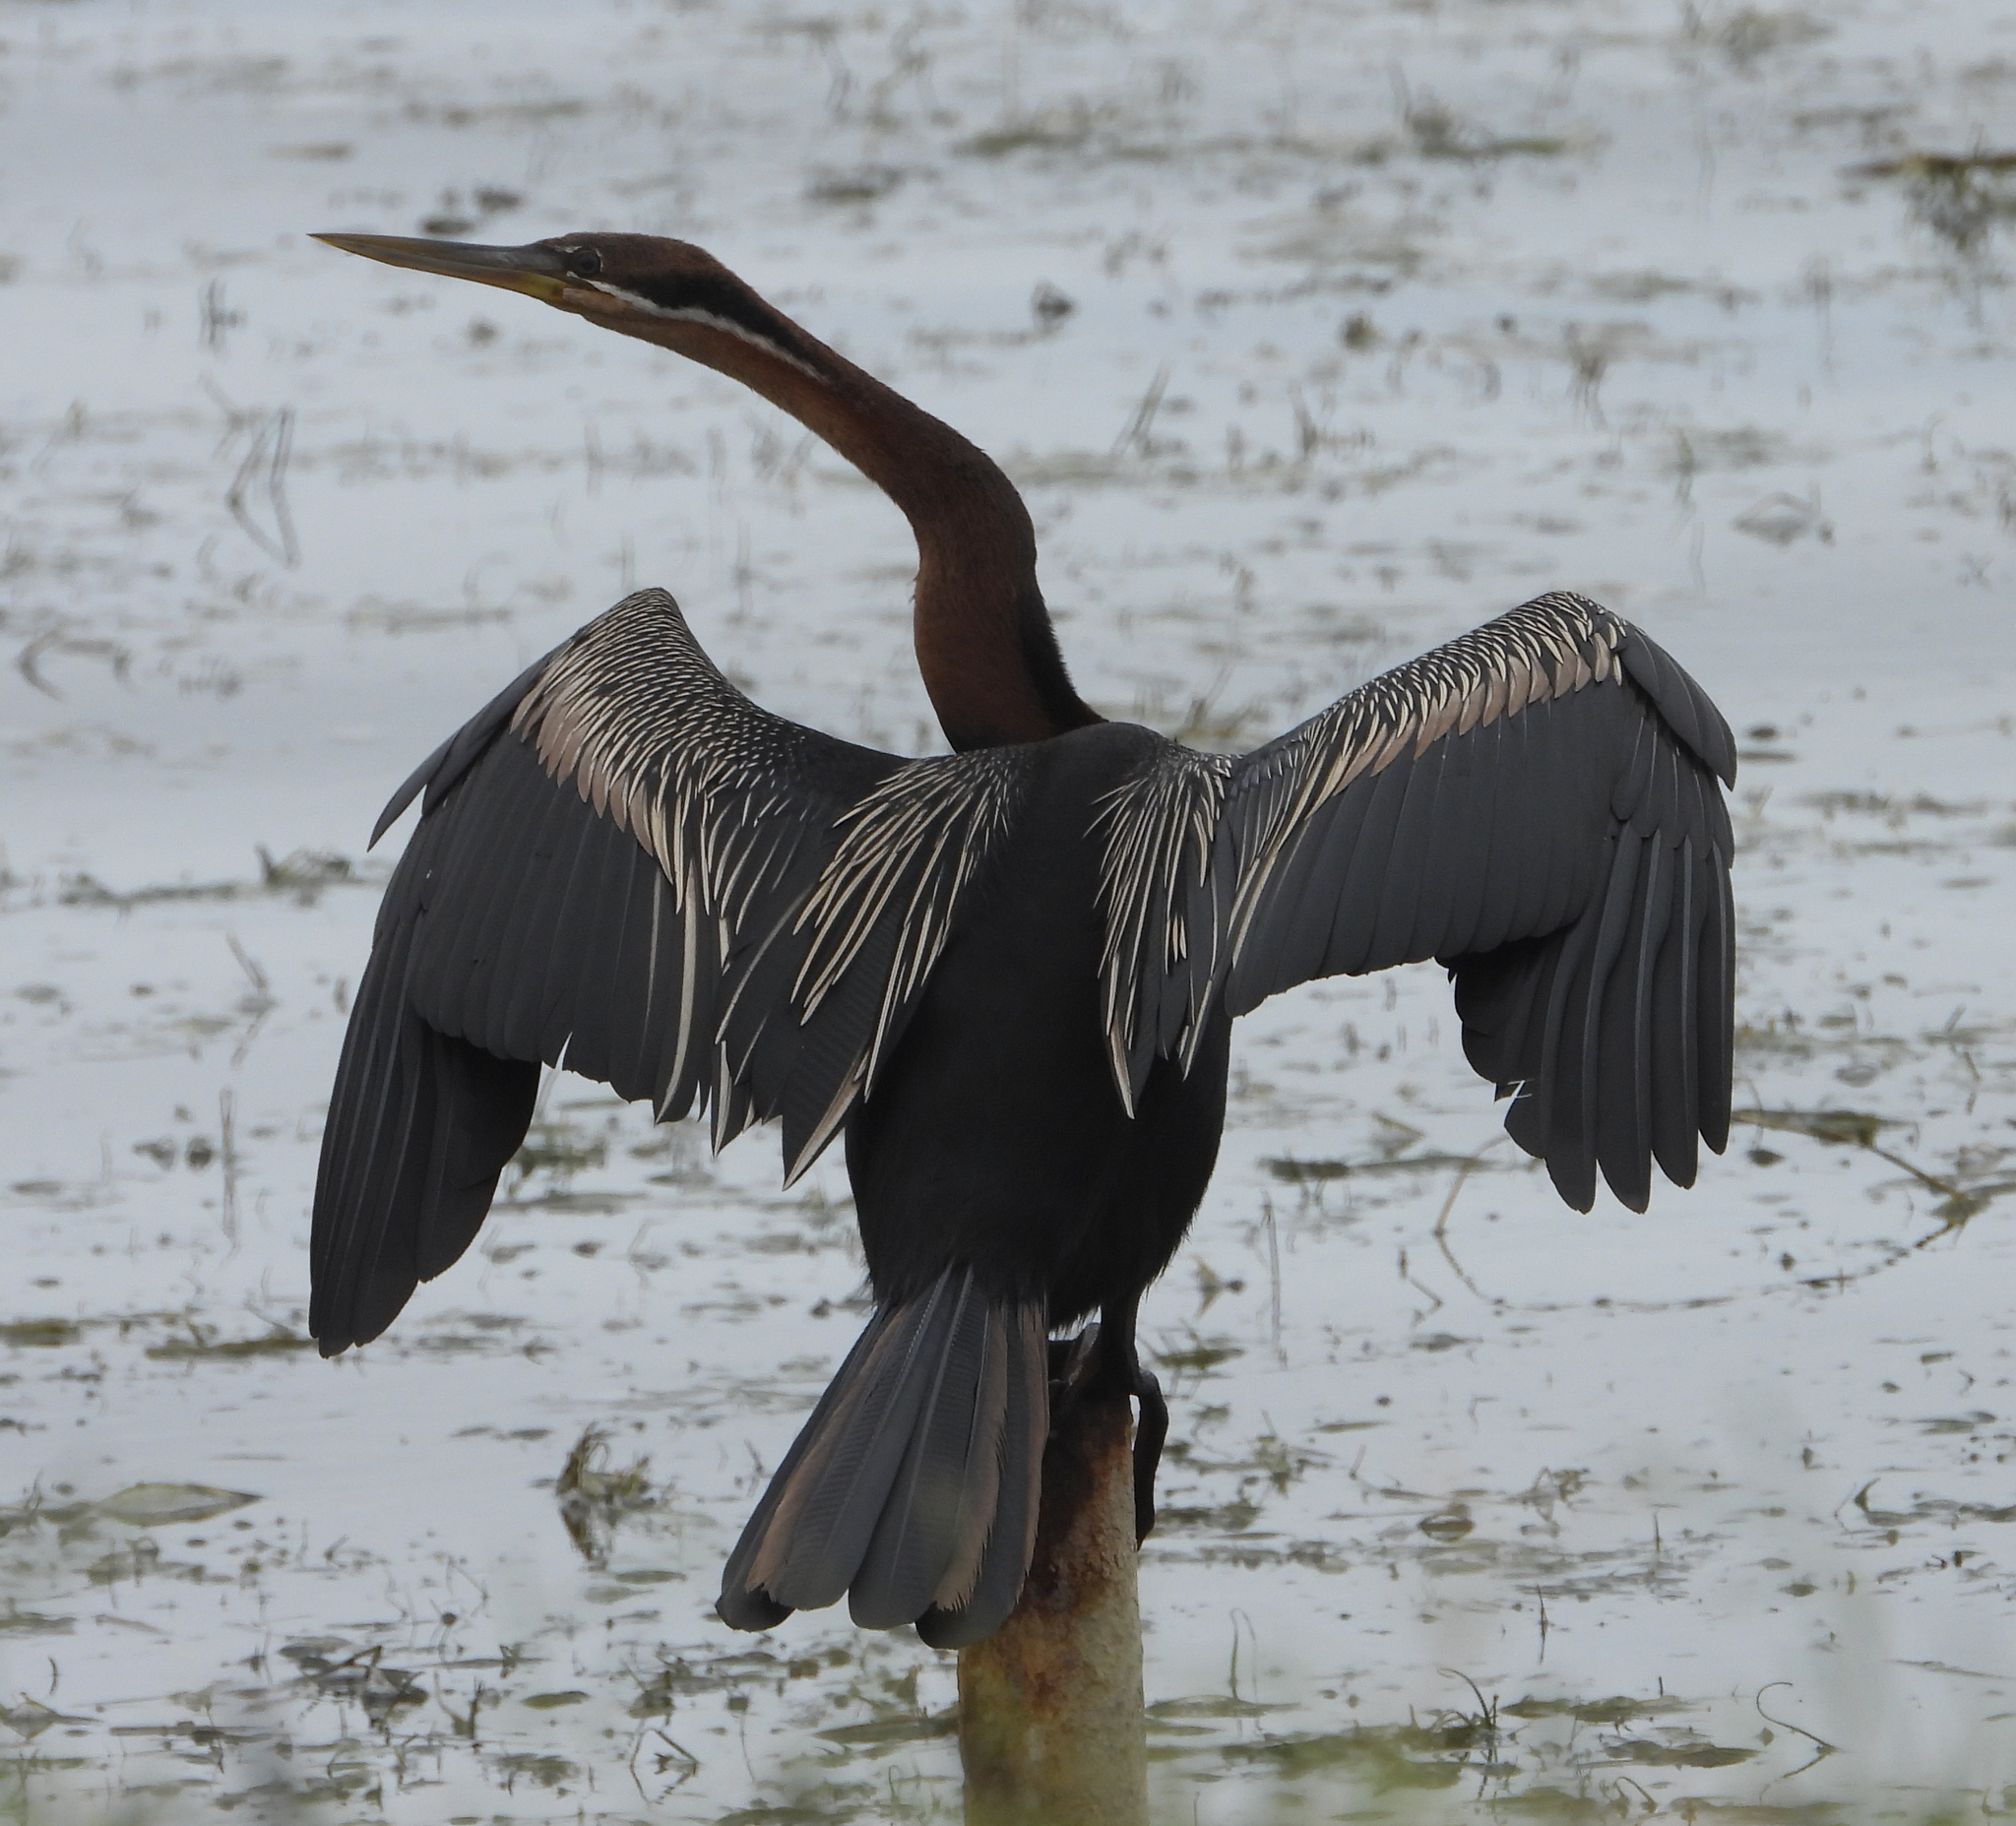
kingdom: Animalia
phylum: Chordata
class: Aves
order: Suliformes
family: Anhingidae
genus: Anhinga
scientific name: Anhinga rufa
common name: African darter
